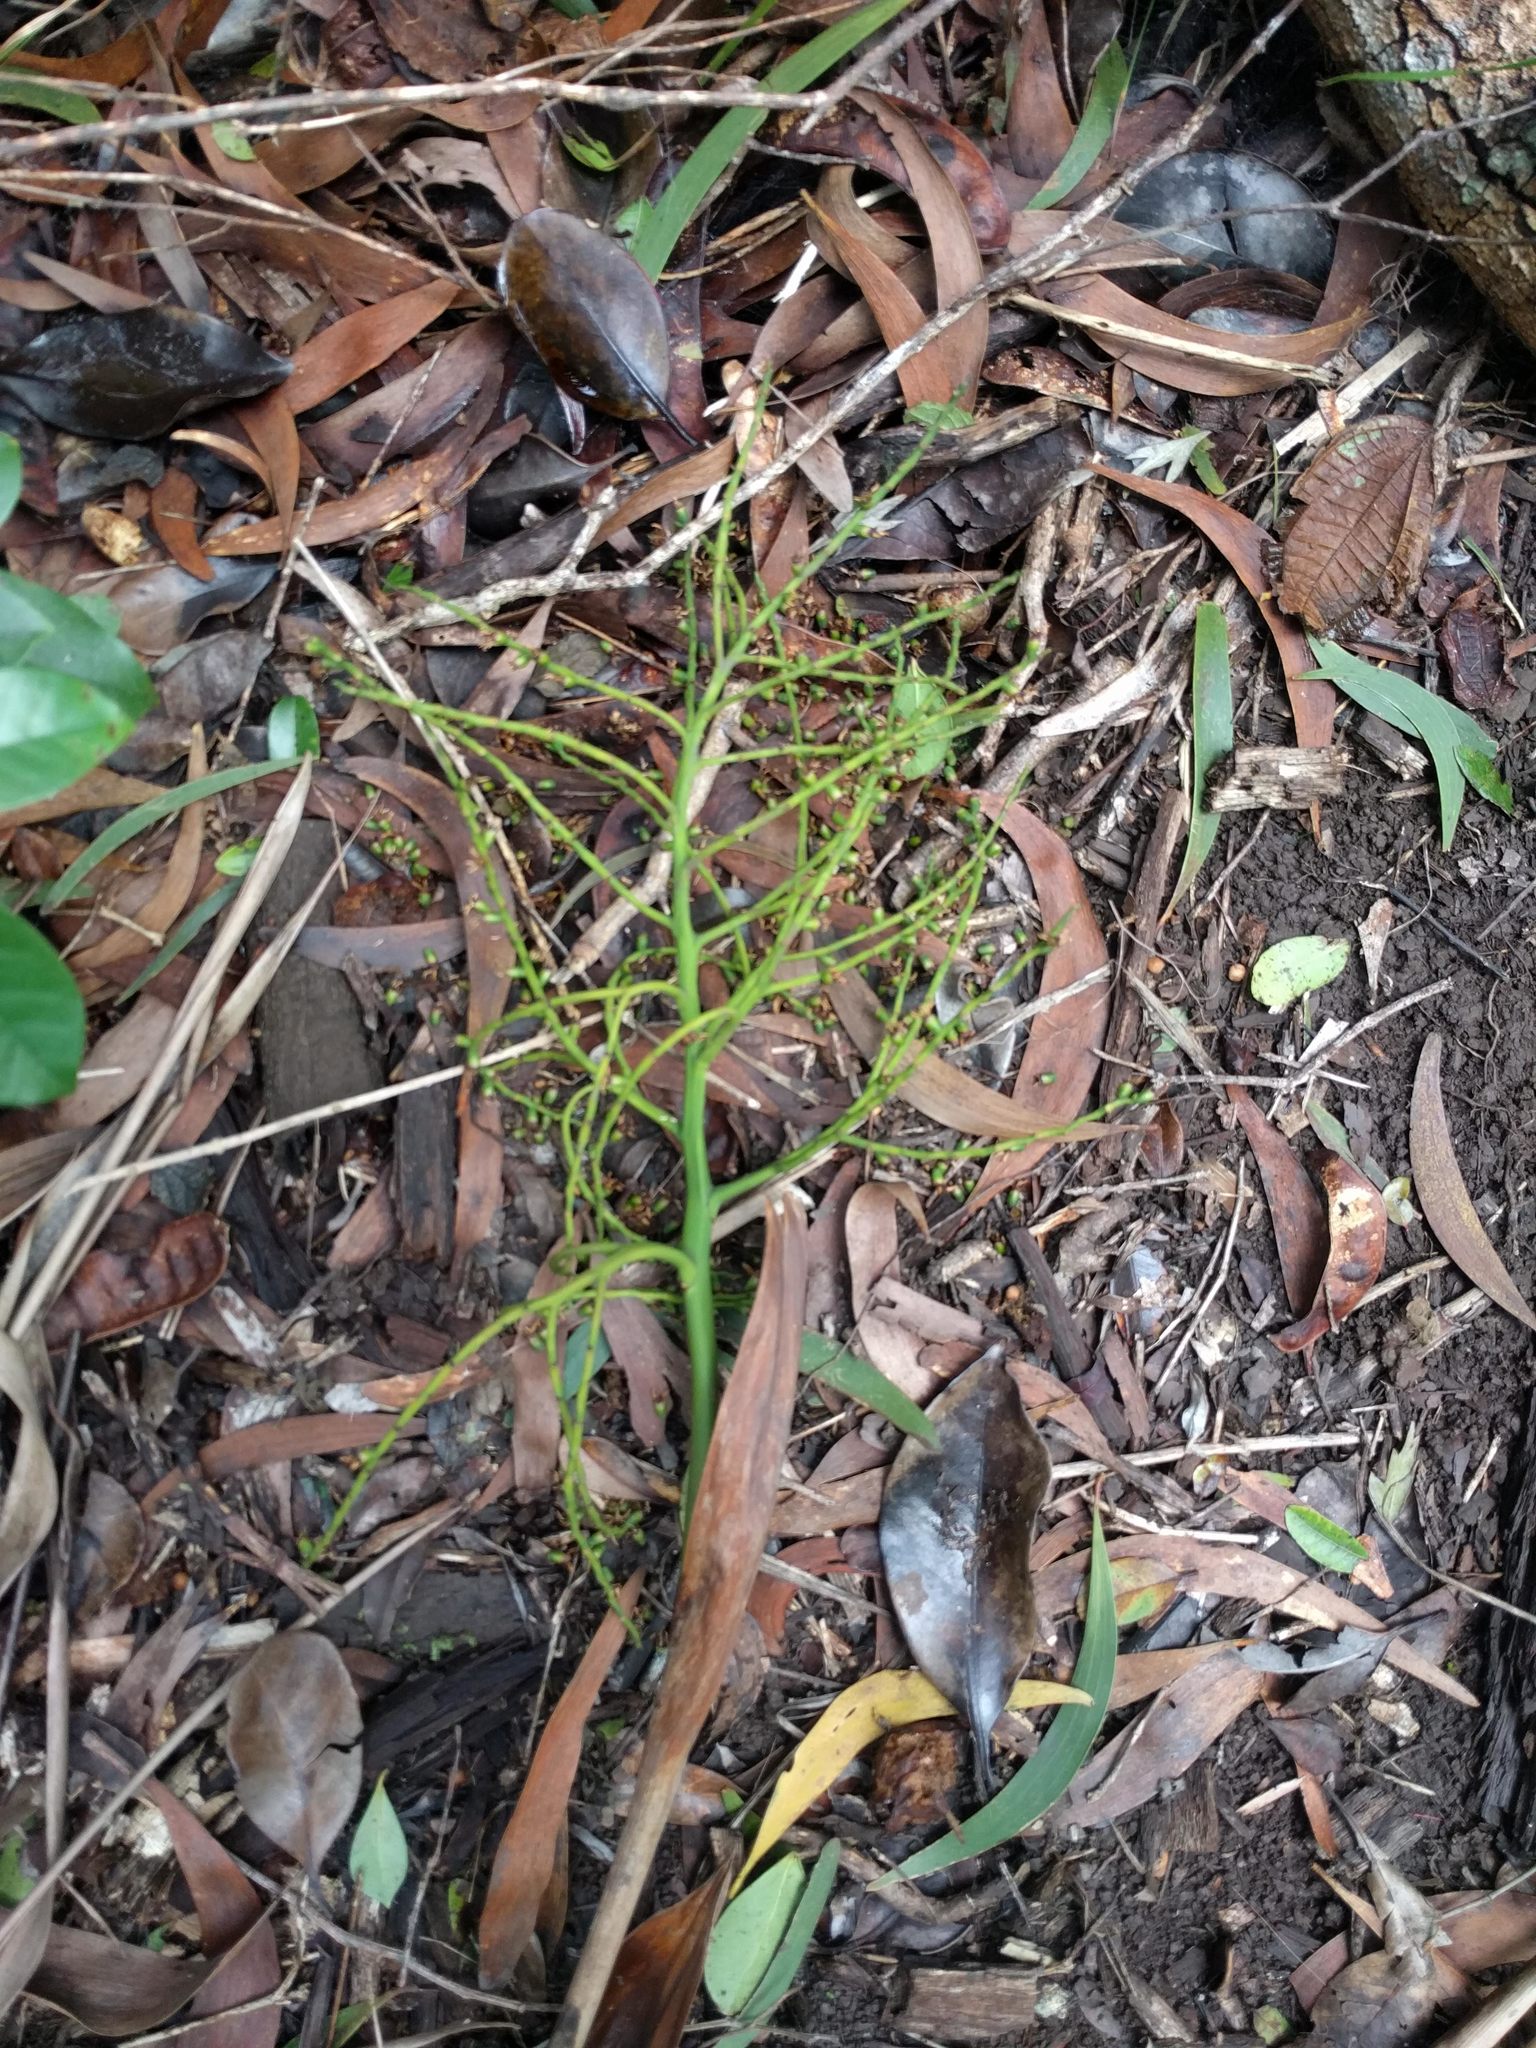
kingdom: Plantae
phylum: Tracheophyta
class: Liliopsida
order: Arecales
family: Arecaceae
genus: Pritchardia
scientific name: Pritchardia kaalae
